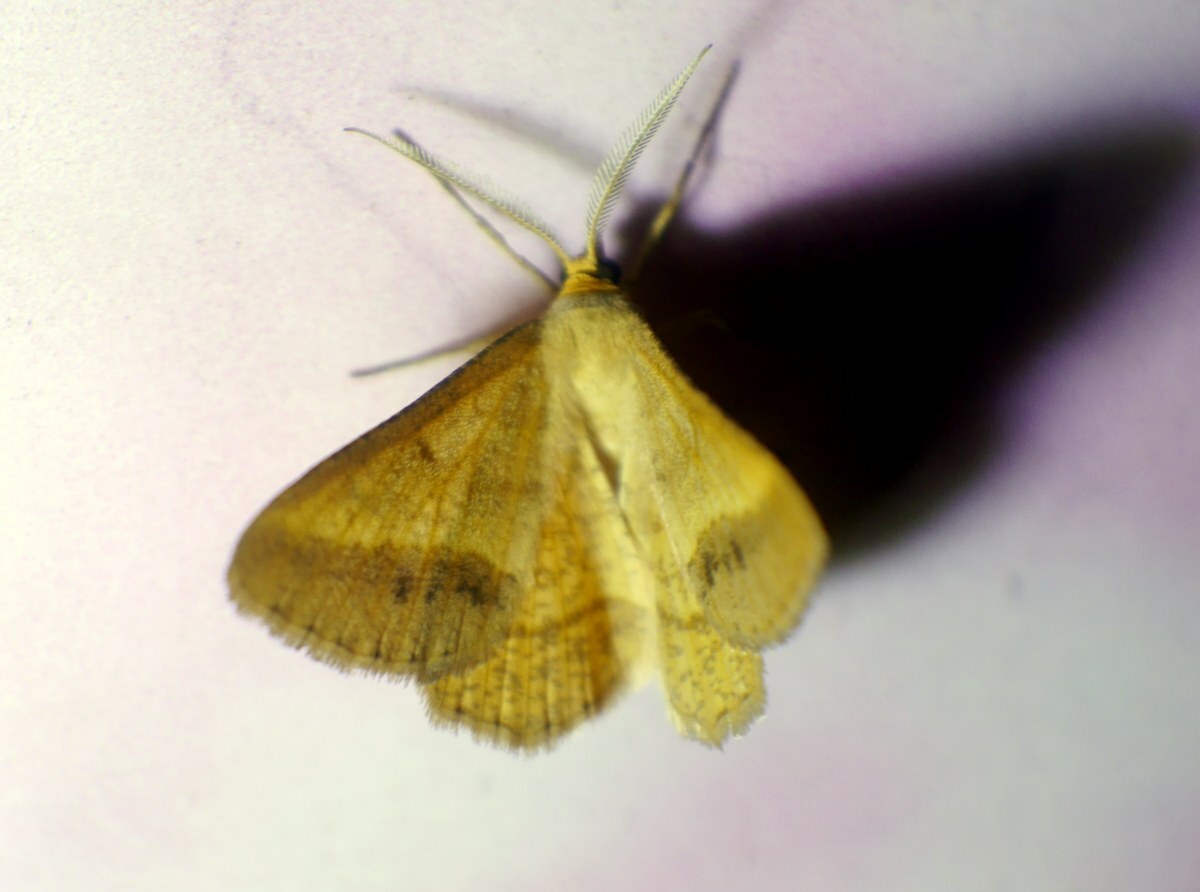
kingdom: Animalia
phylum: Arthropoda
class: Insecta
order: Lepidoptera
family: Geometridae
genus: Tephrina
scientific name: Tephrina arenacearia
